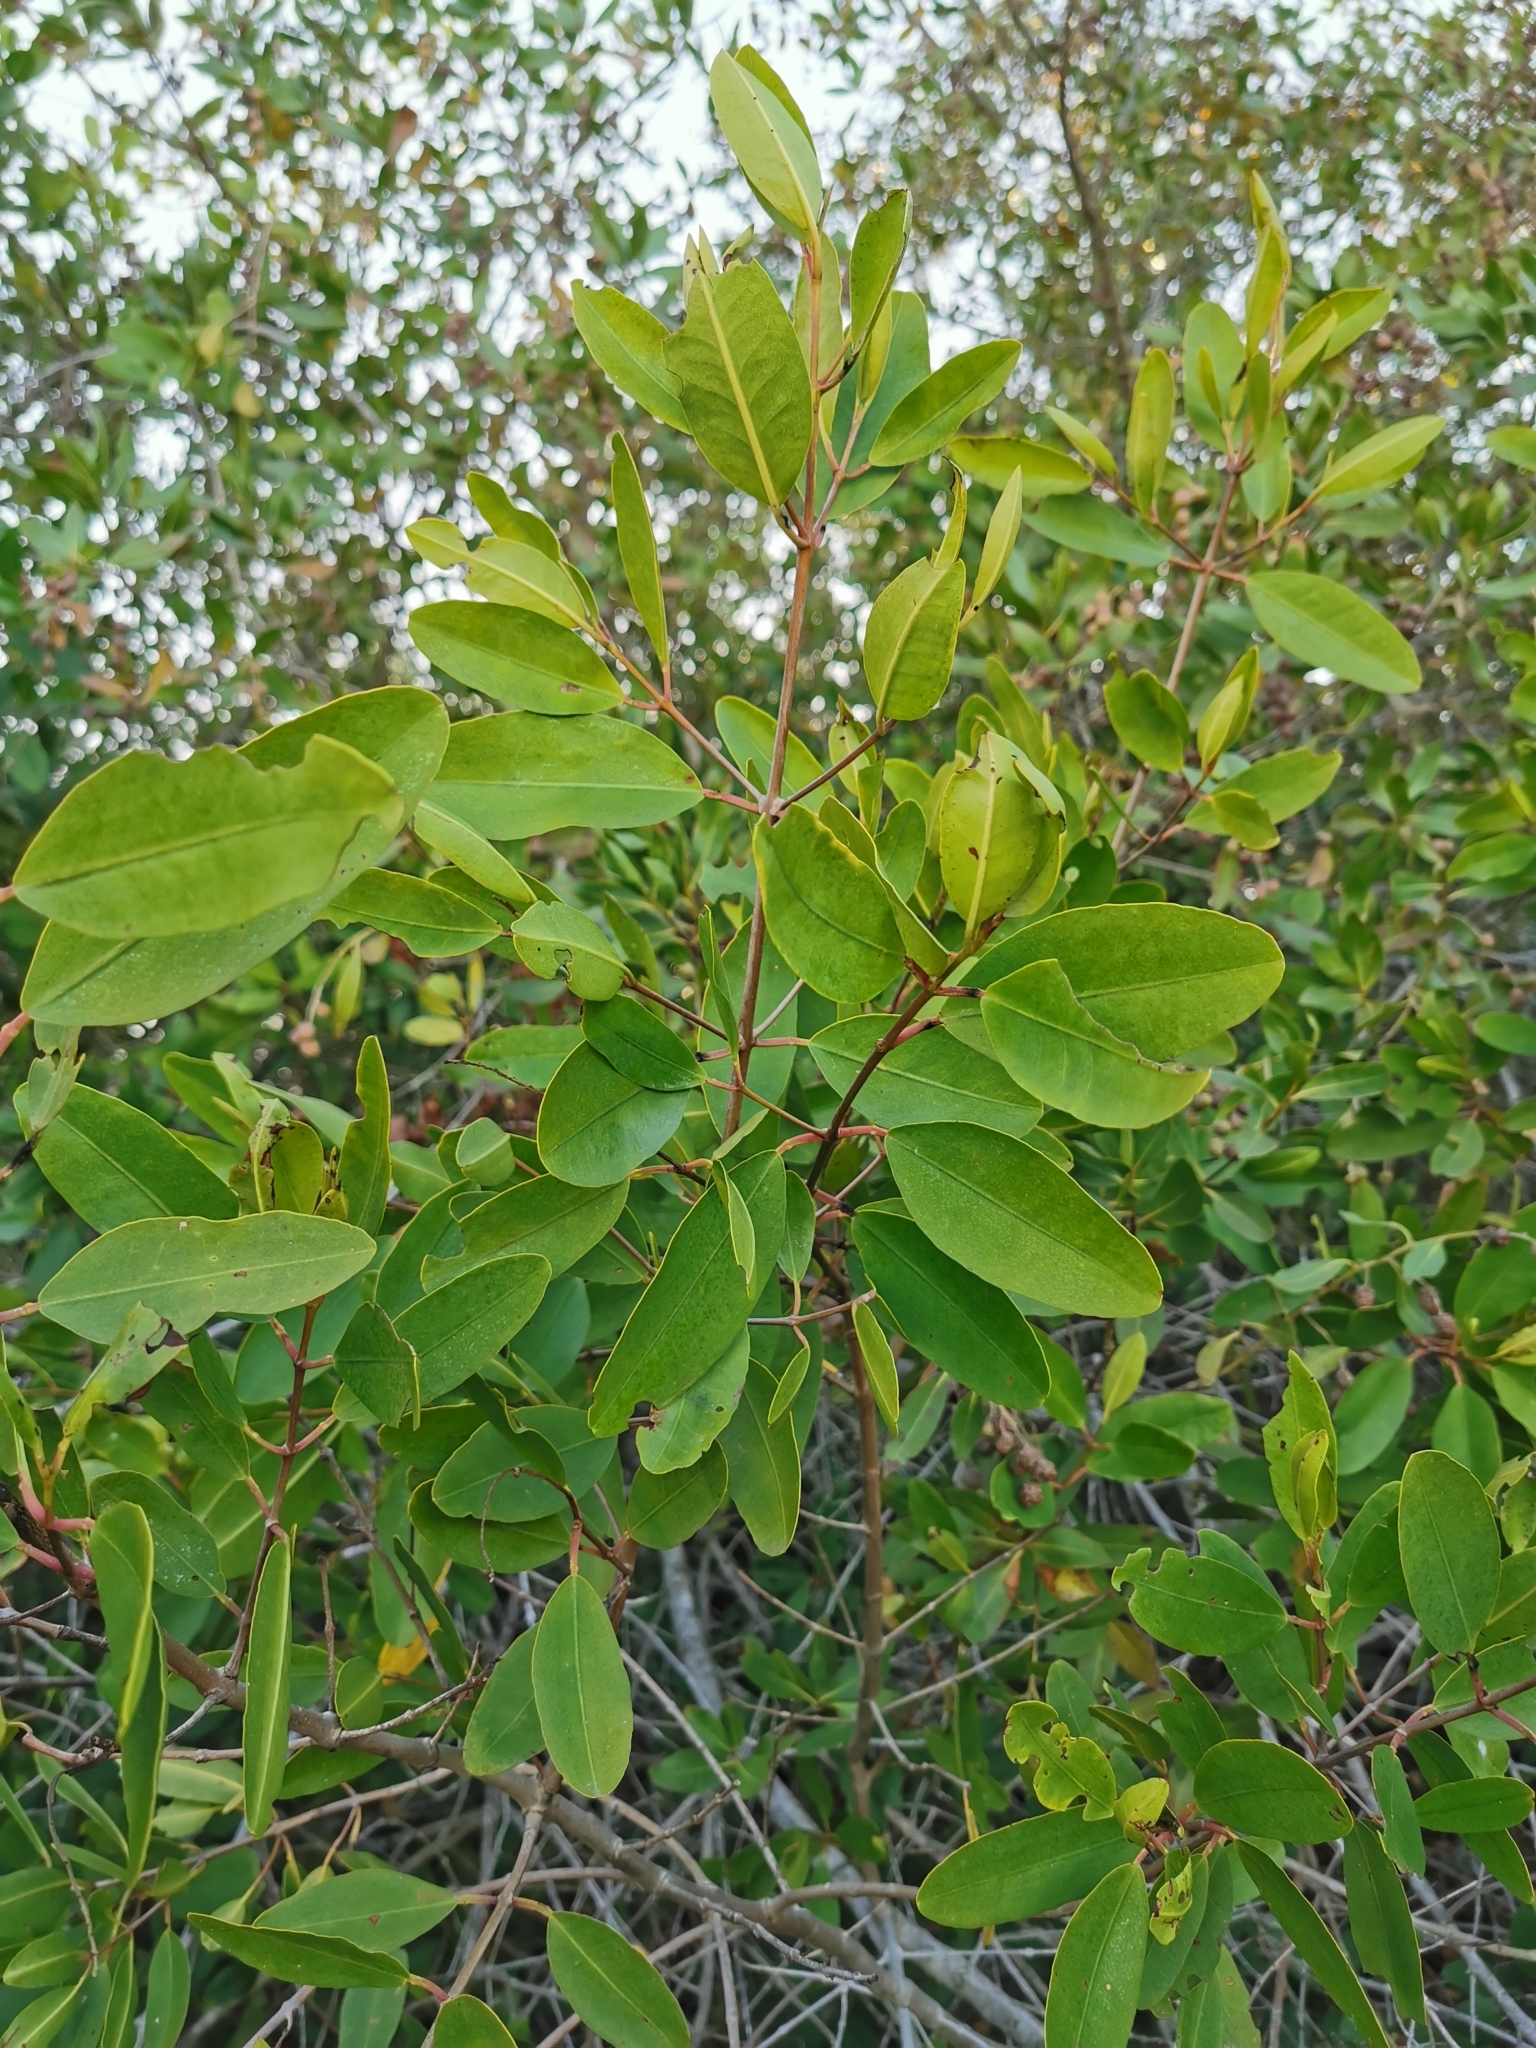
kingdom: Plantae
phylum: Tracheophyta
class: Magnoliopsida
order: Myrtales
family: Combretaceae
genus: Laguncularia
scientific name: Laguncularia racemosa
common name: White mangrove
